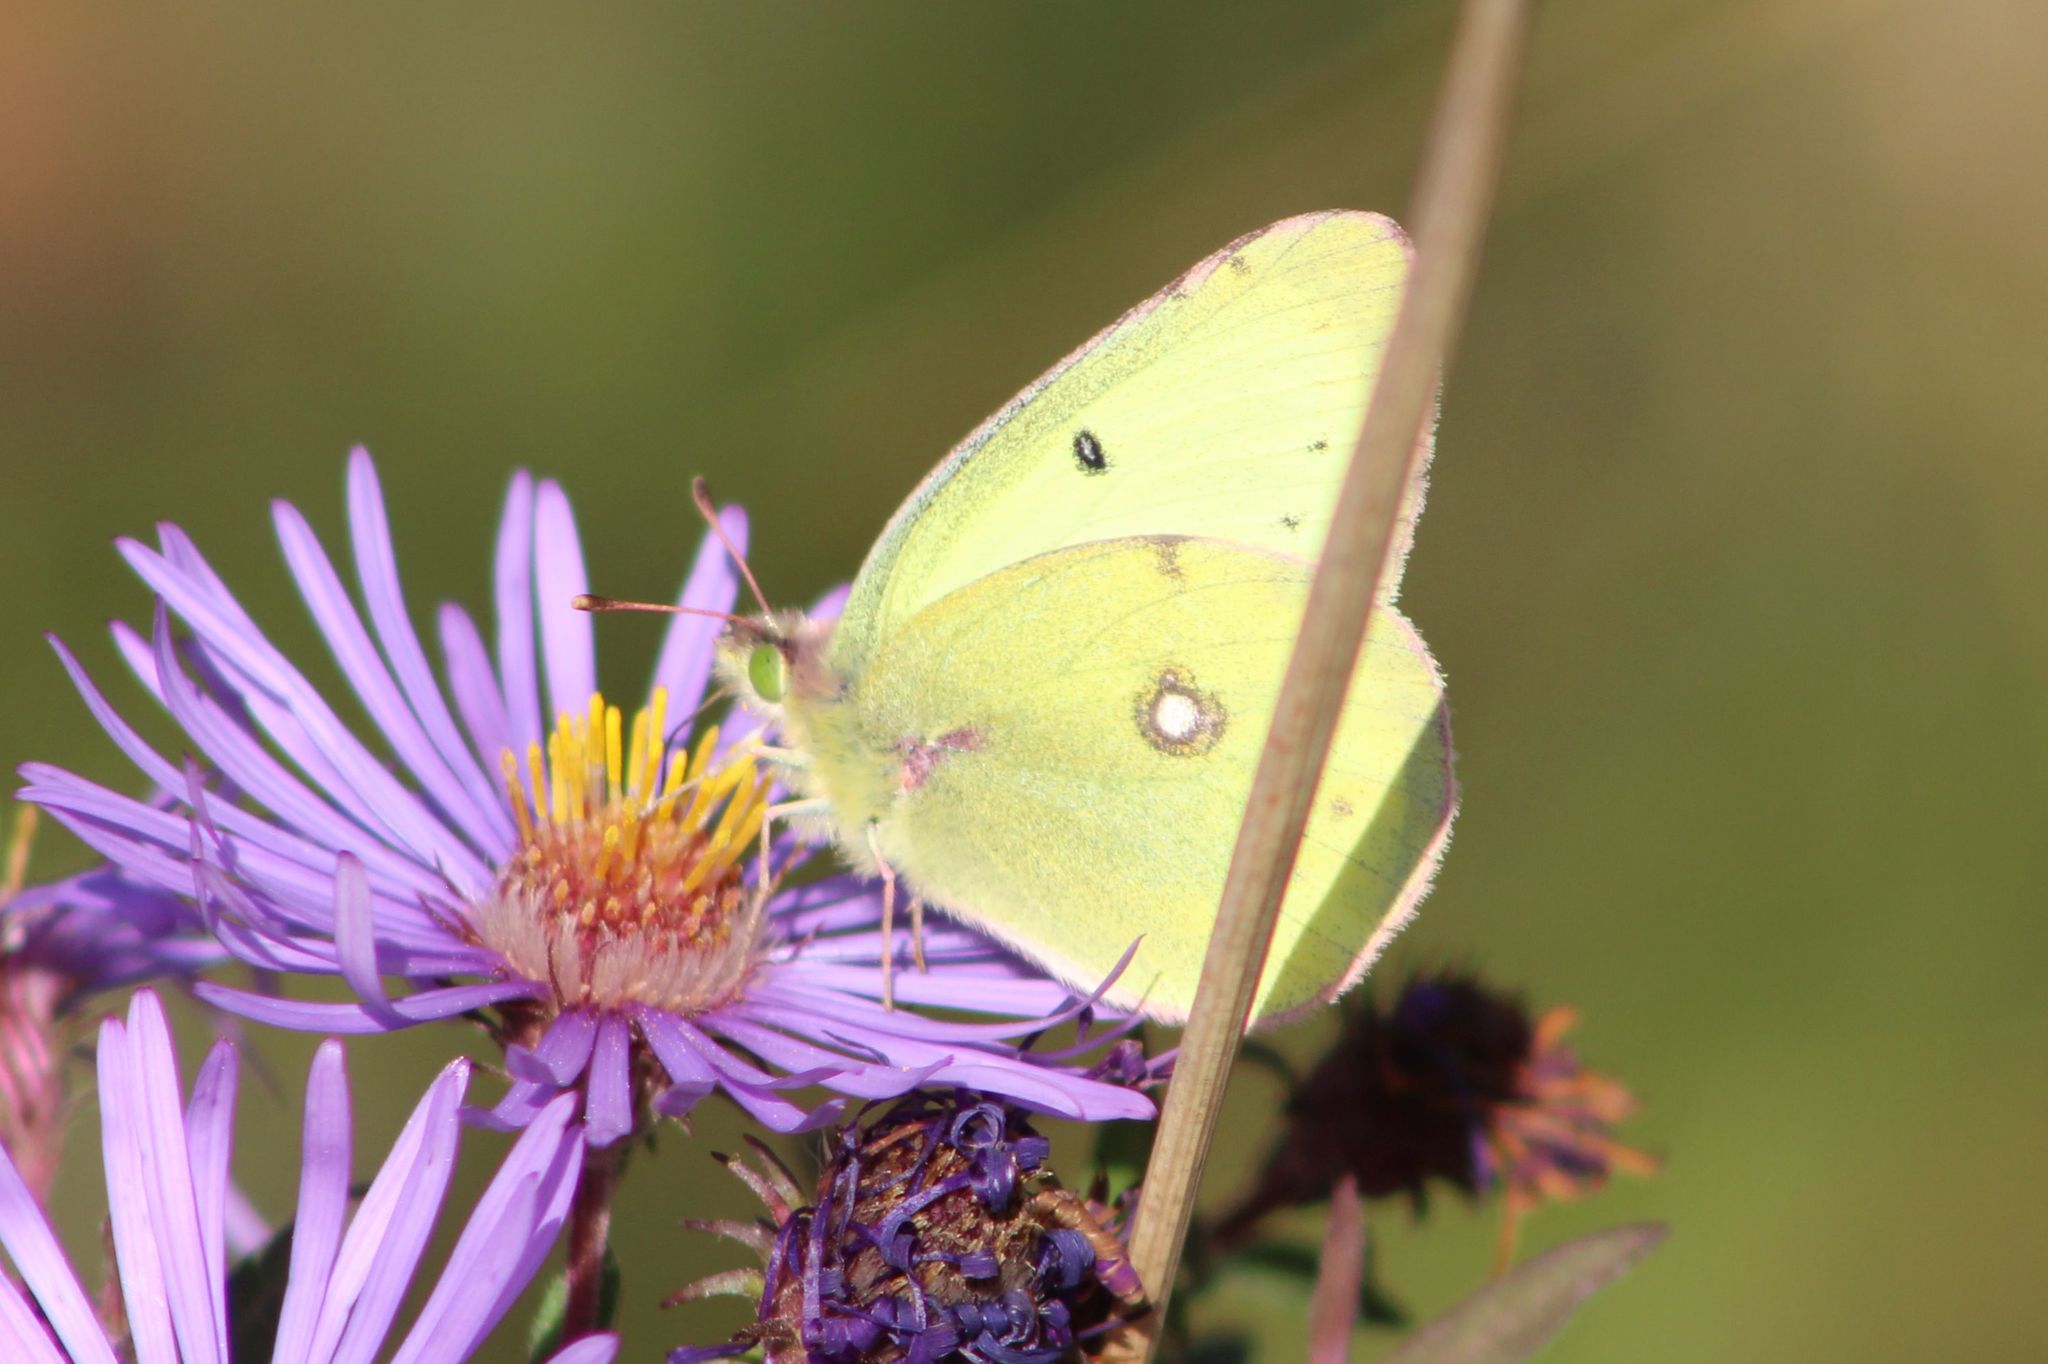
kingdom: Animalia
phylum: Arthropoda
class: Insecta
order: Lepidoptera
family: Pieridae
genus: Colias
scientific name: Colias philodice
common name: Clouded sulphur
